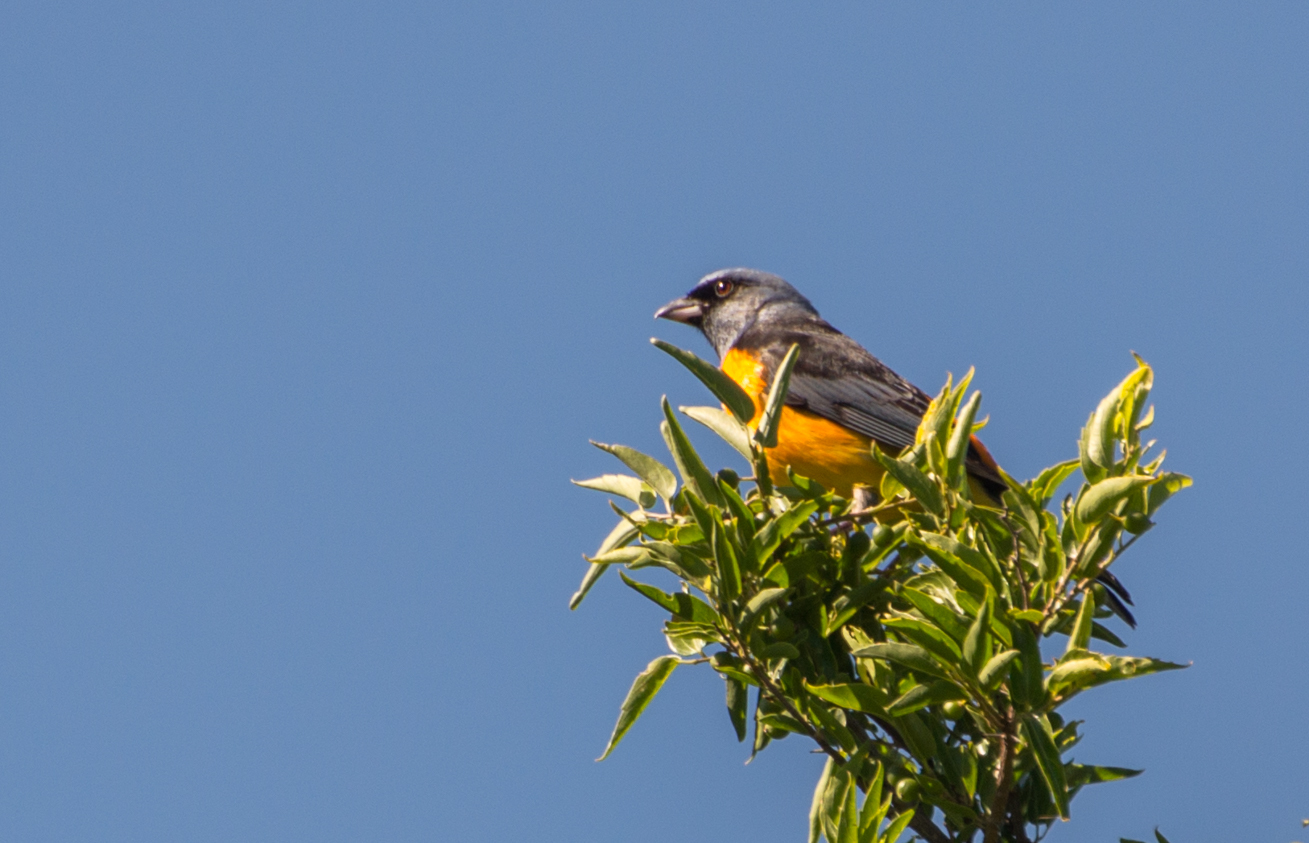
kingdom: Animalia
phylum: Chordata
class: Aves
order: Passeriformes
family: Thraupidae
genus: Rauenia
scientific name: Rauenia bonariensis
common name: Blue-and-yellow tanager
